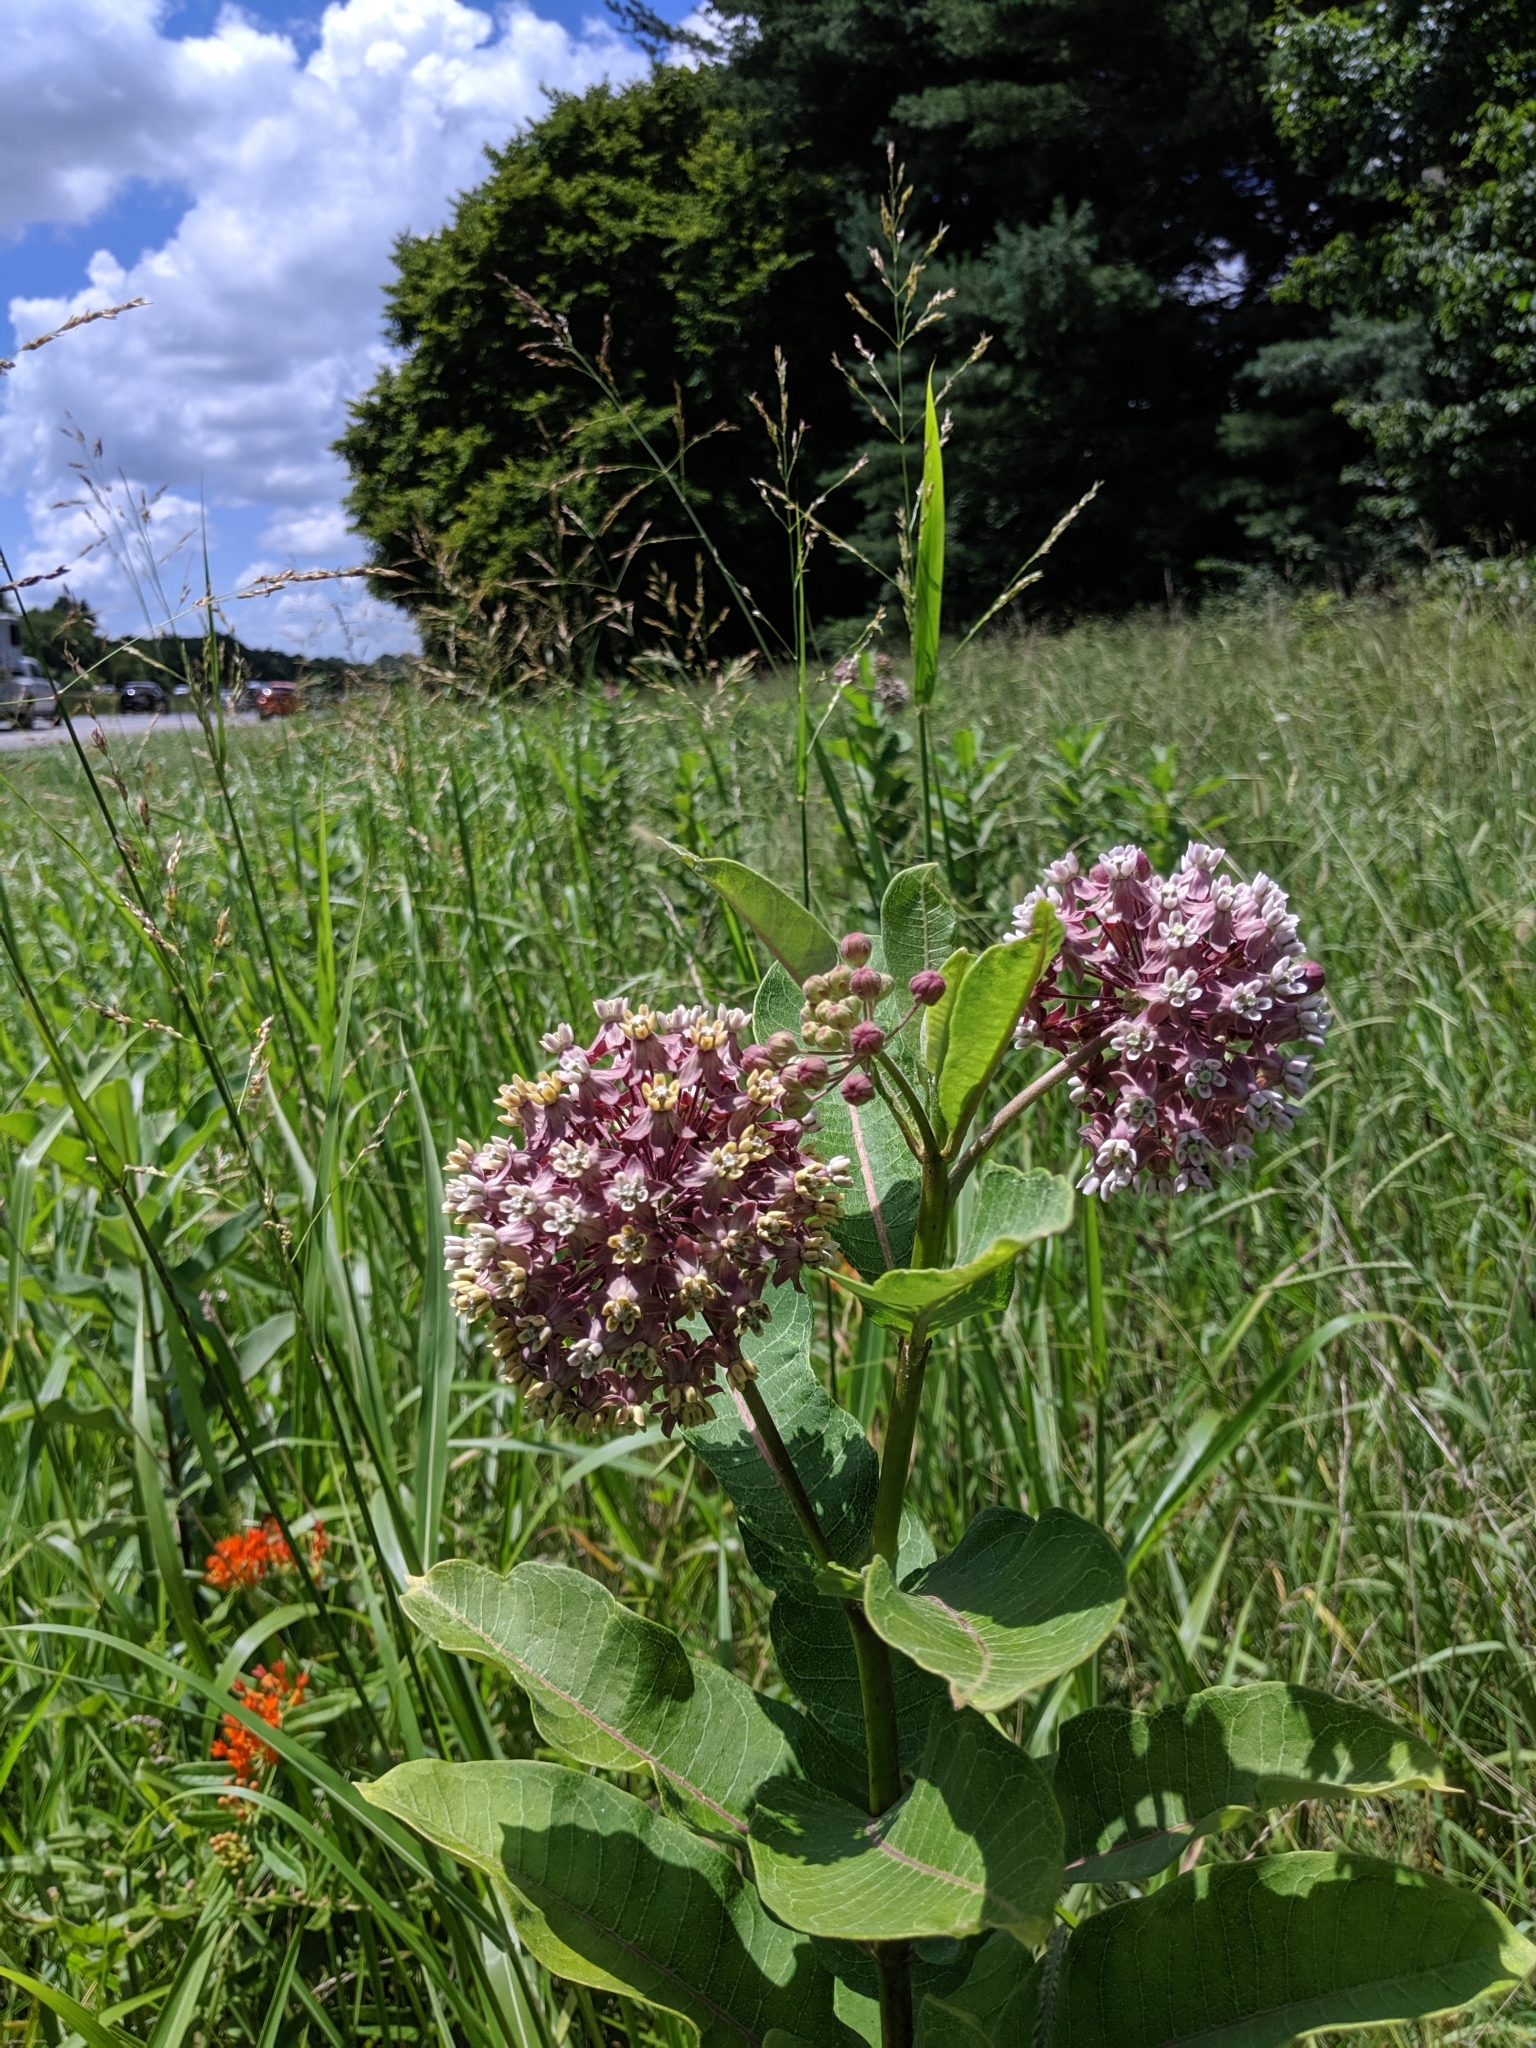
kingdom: Plantae
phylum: Tracheophyta
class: Magnoliopsida
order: Gentianales
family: Apocynaceae
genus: Asclepias
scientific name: Asclepias syriaca
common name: Common milkweed
